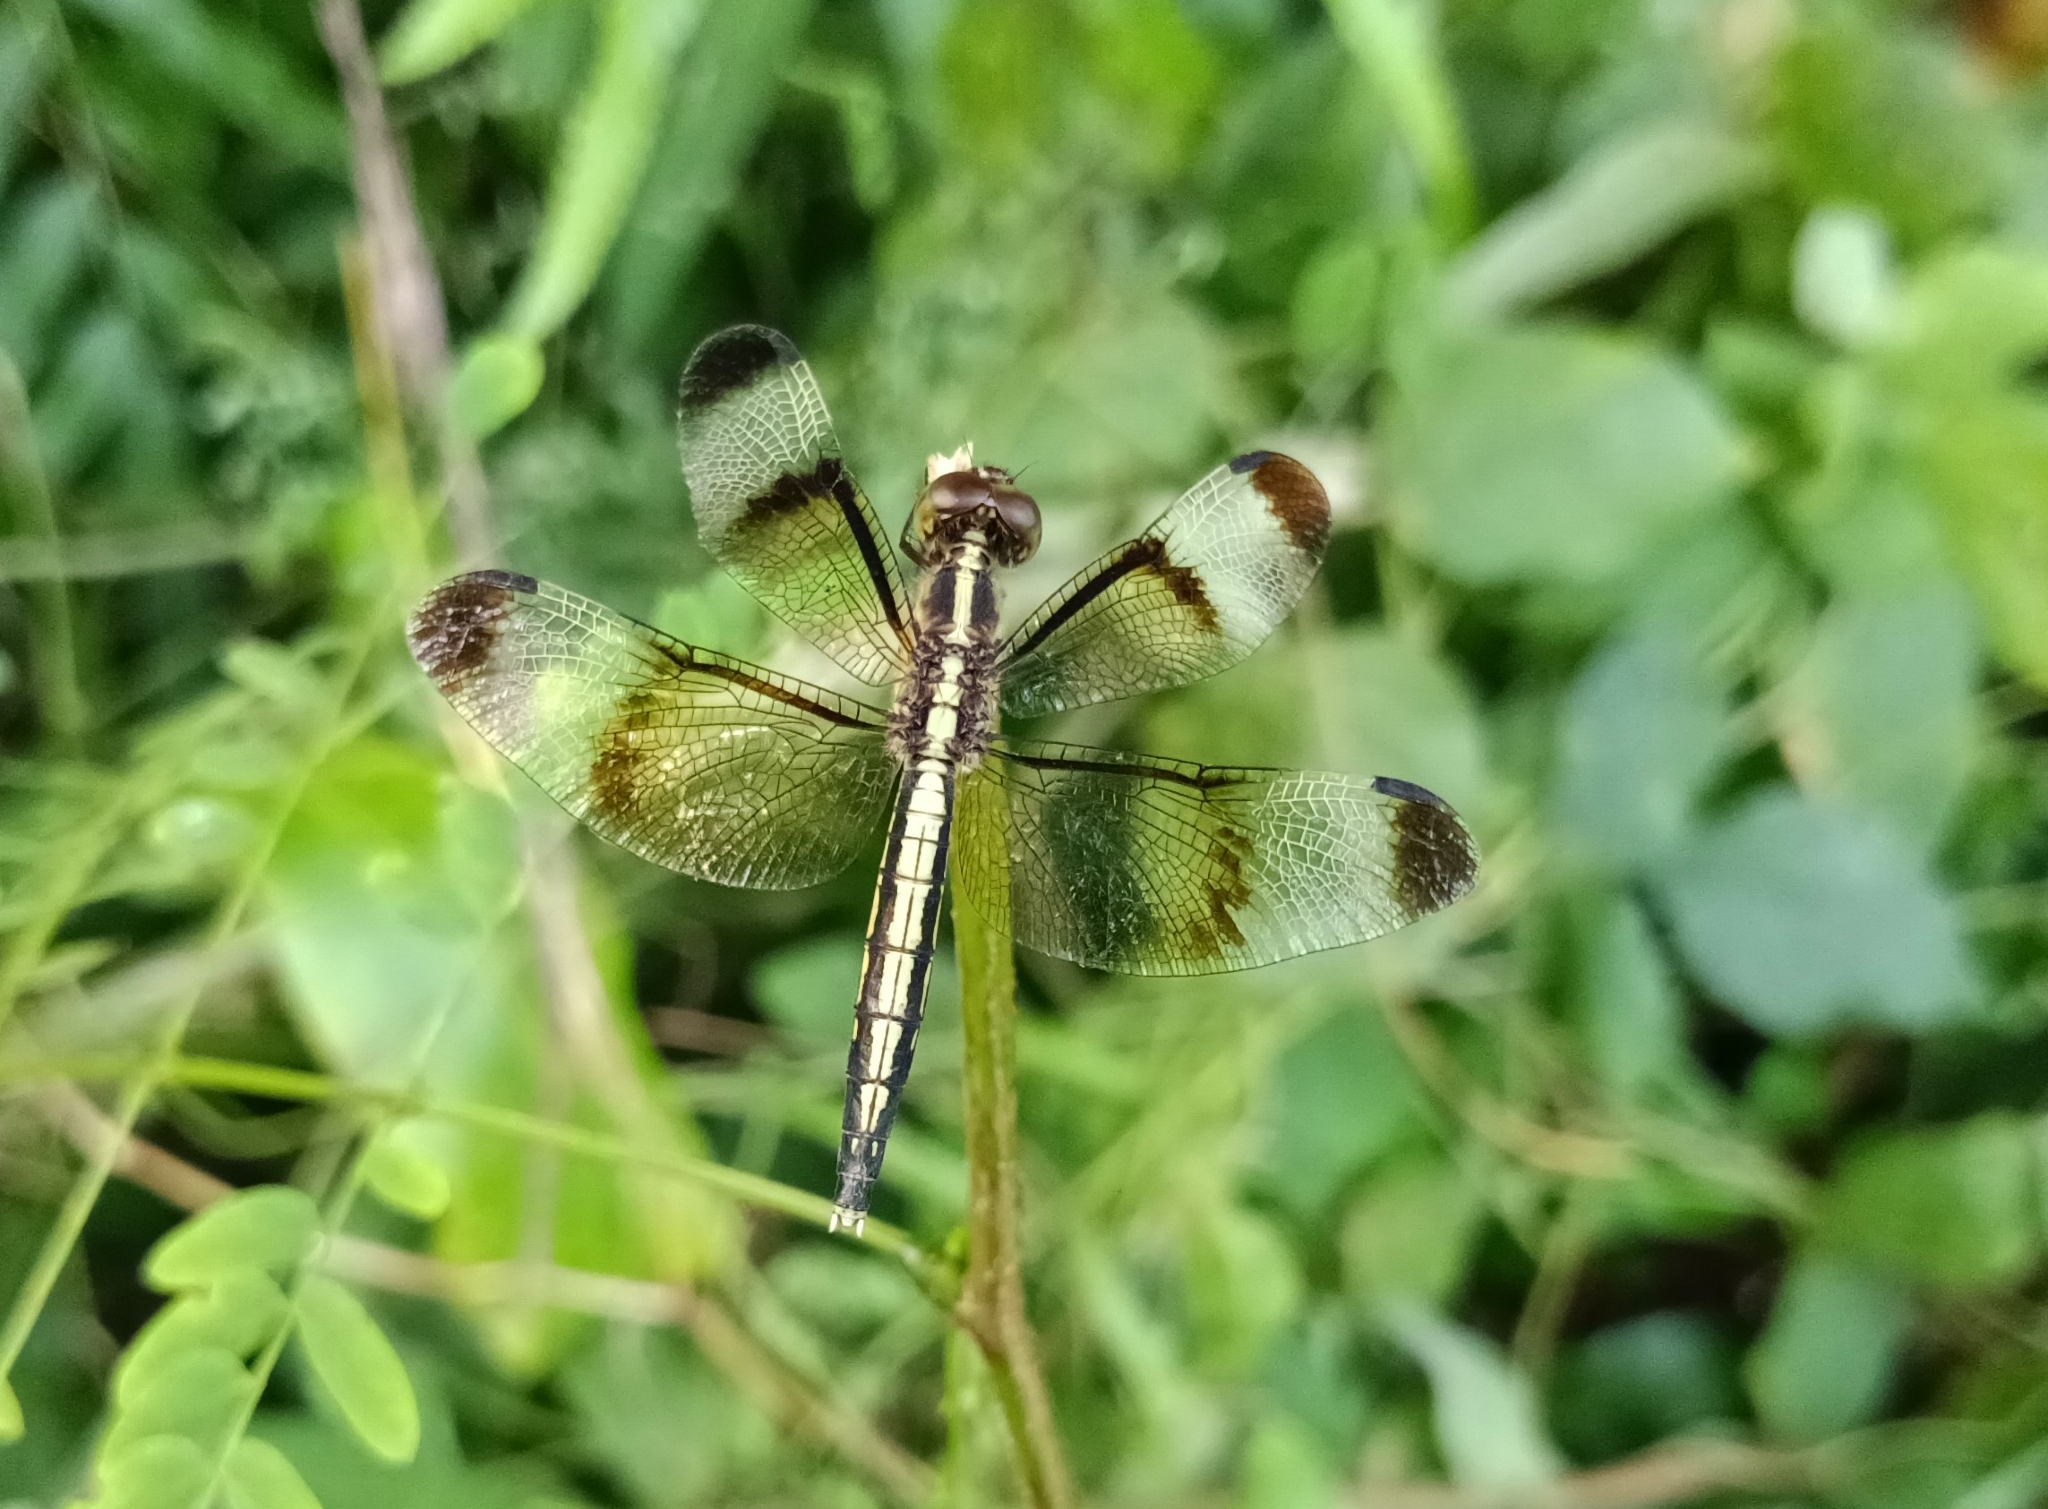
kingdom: Animalia
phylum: Arthropoda
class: Insecta
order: Odonata
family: Libellulidae
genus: Neurothemis
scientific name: Neurothemis tullia
